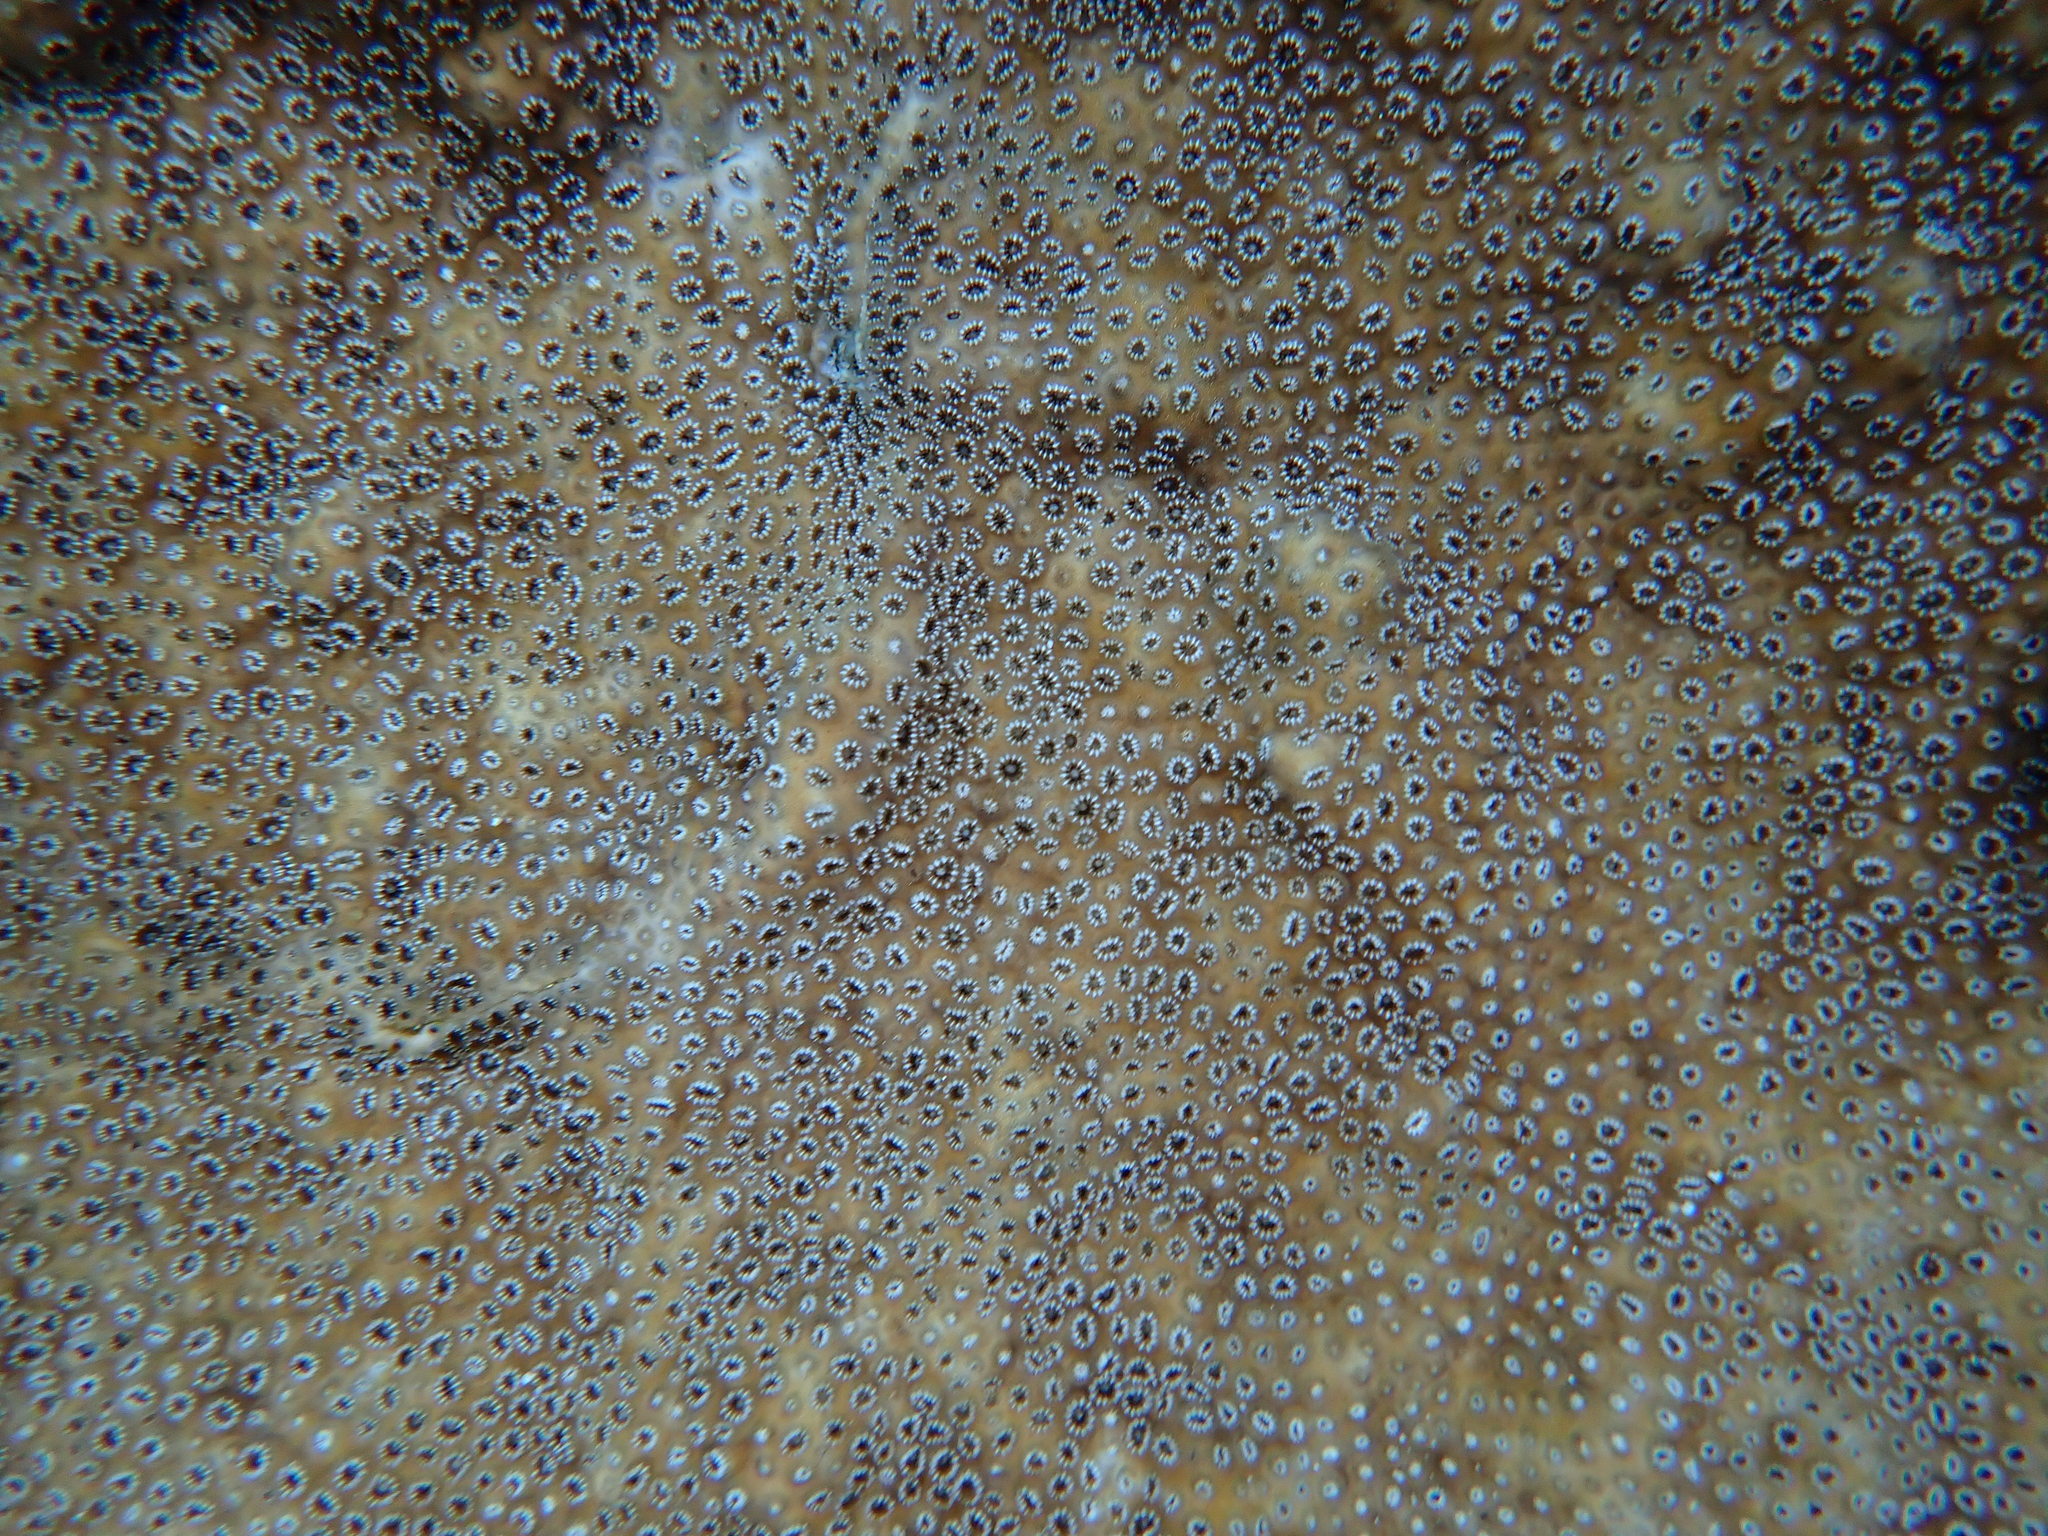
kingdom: Animalia
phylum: Cnidaria
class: Anthozoa
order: Zoantharia
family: Sphenopidae
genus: Palythoa
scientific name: Palythoa tuberculosa
